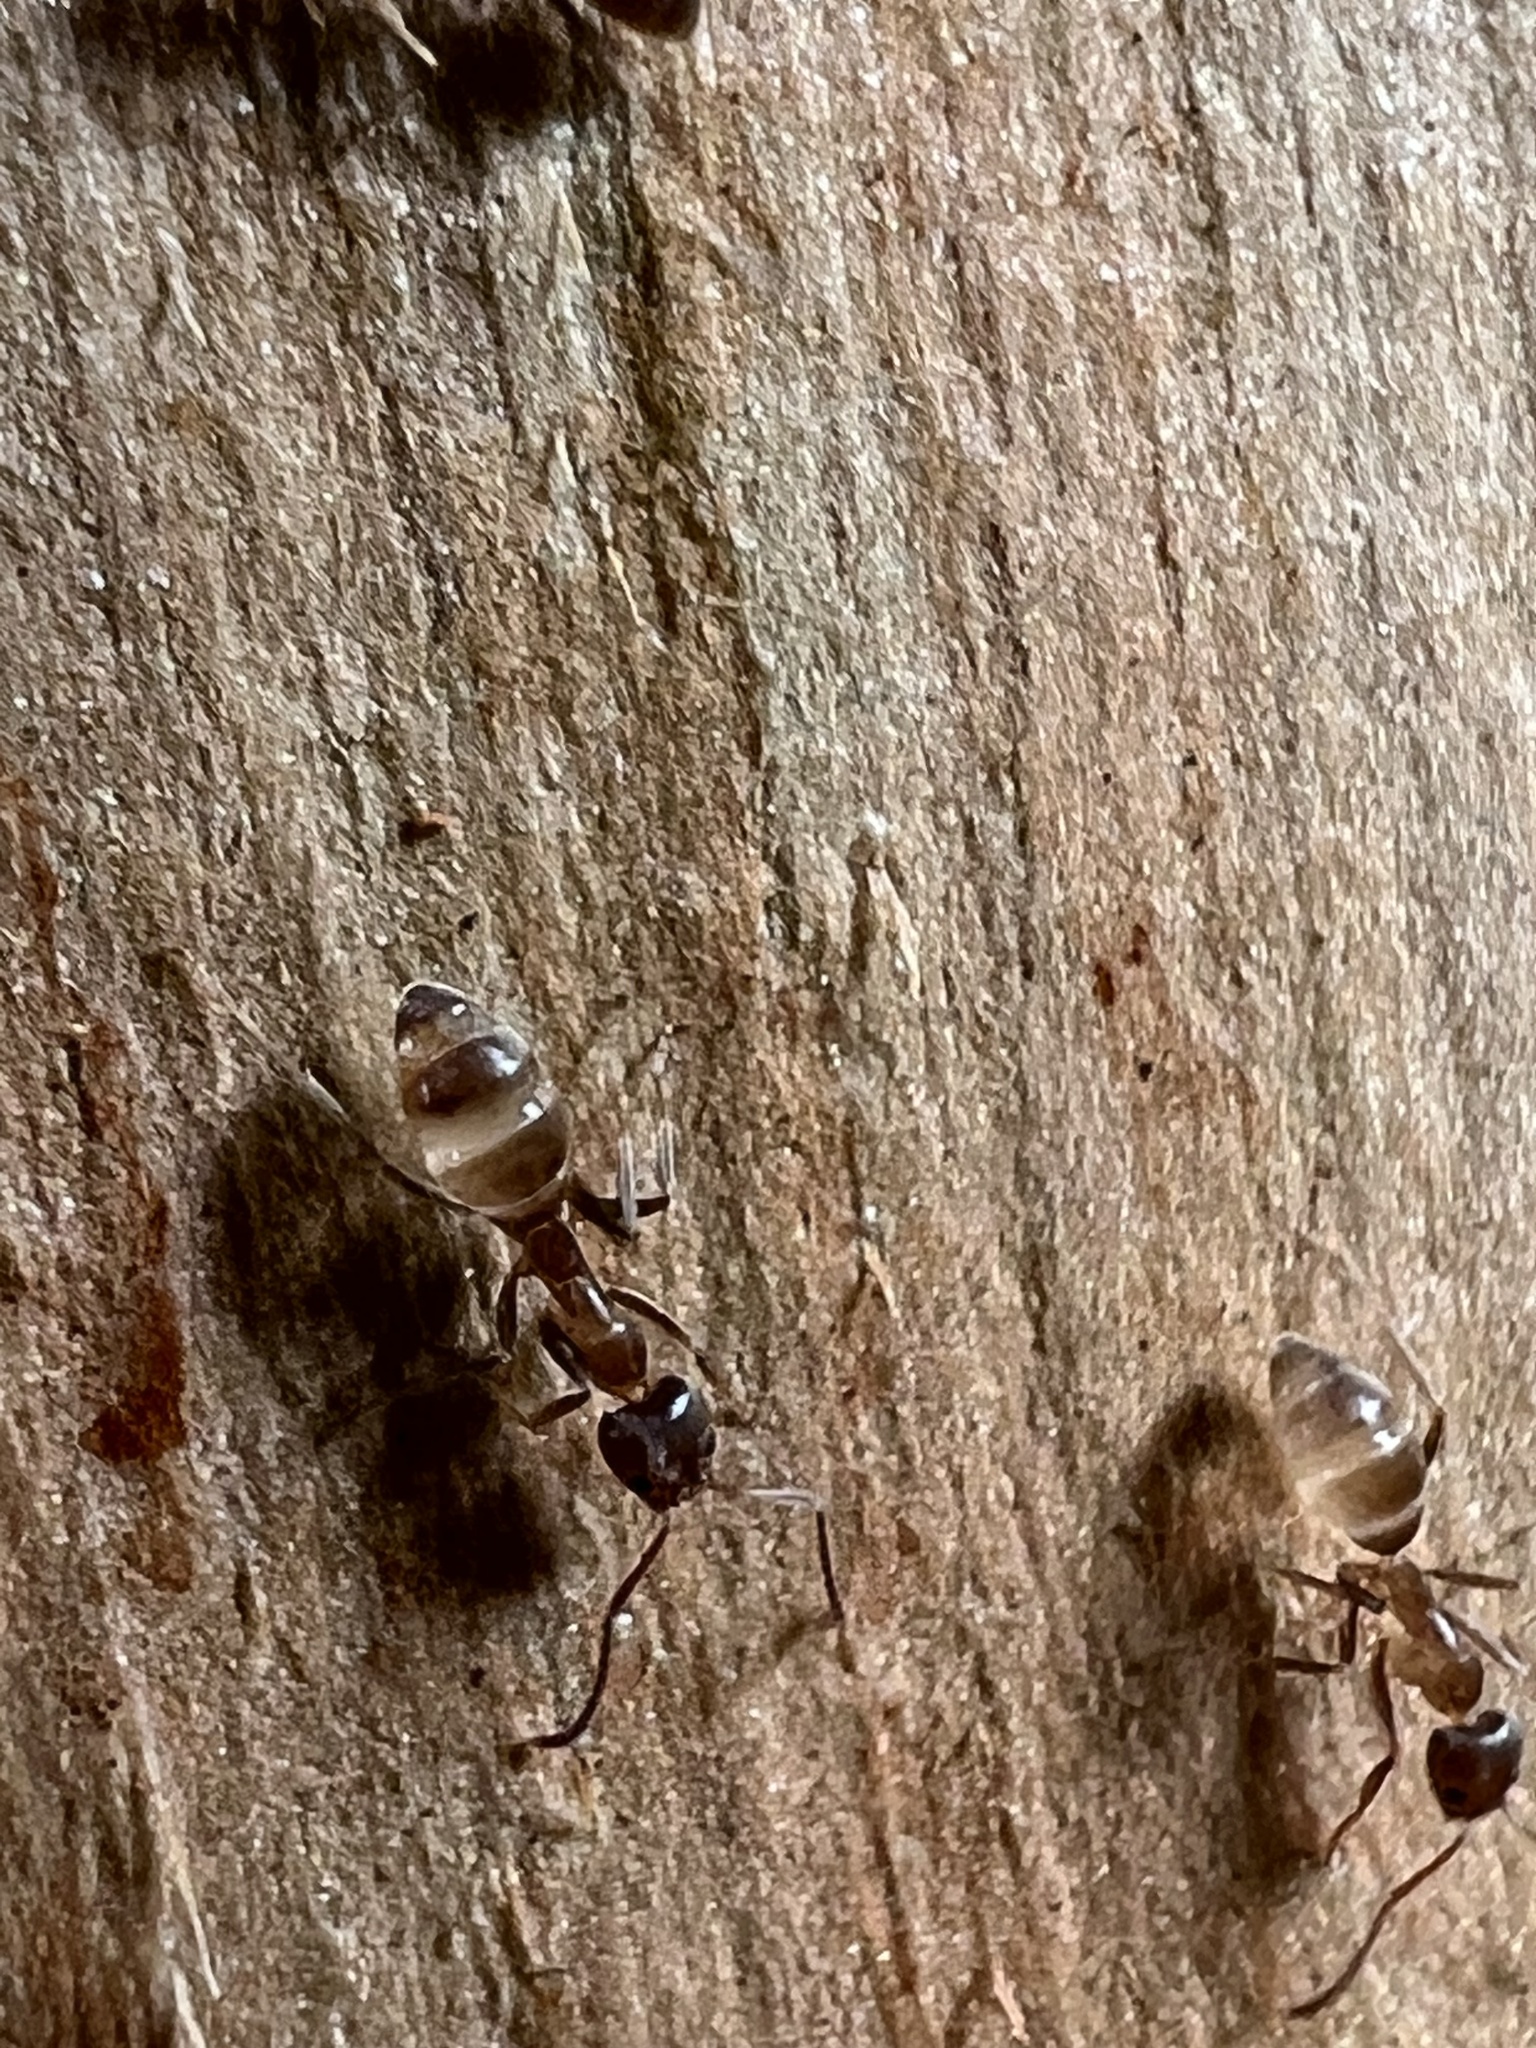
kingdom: Animalia
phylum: Arthropoda
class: Insecta
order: Hymenoptera
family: Formicidae
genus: Linepithema
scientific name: Linepithema humile
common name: Argentine ant
